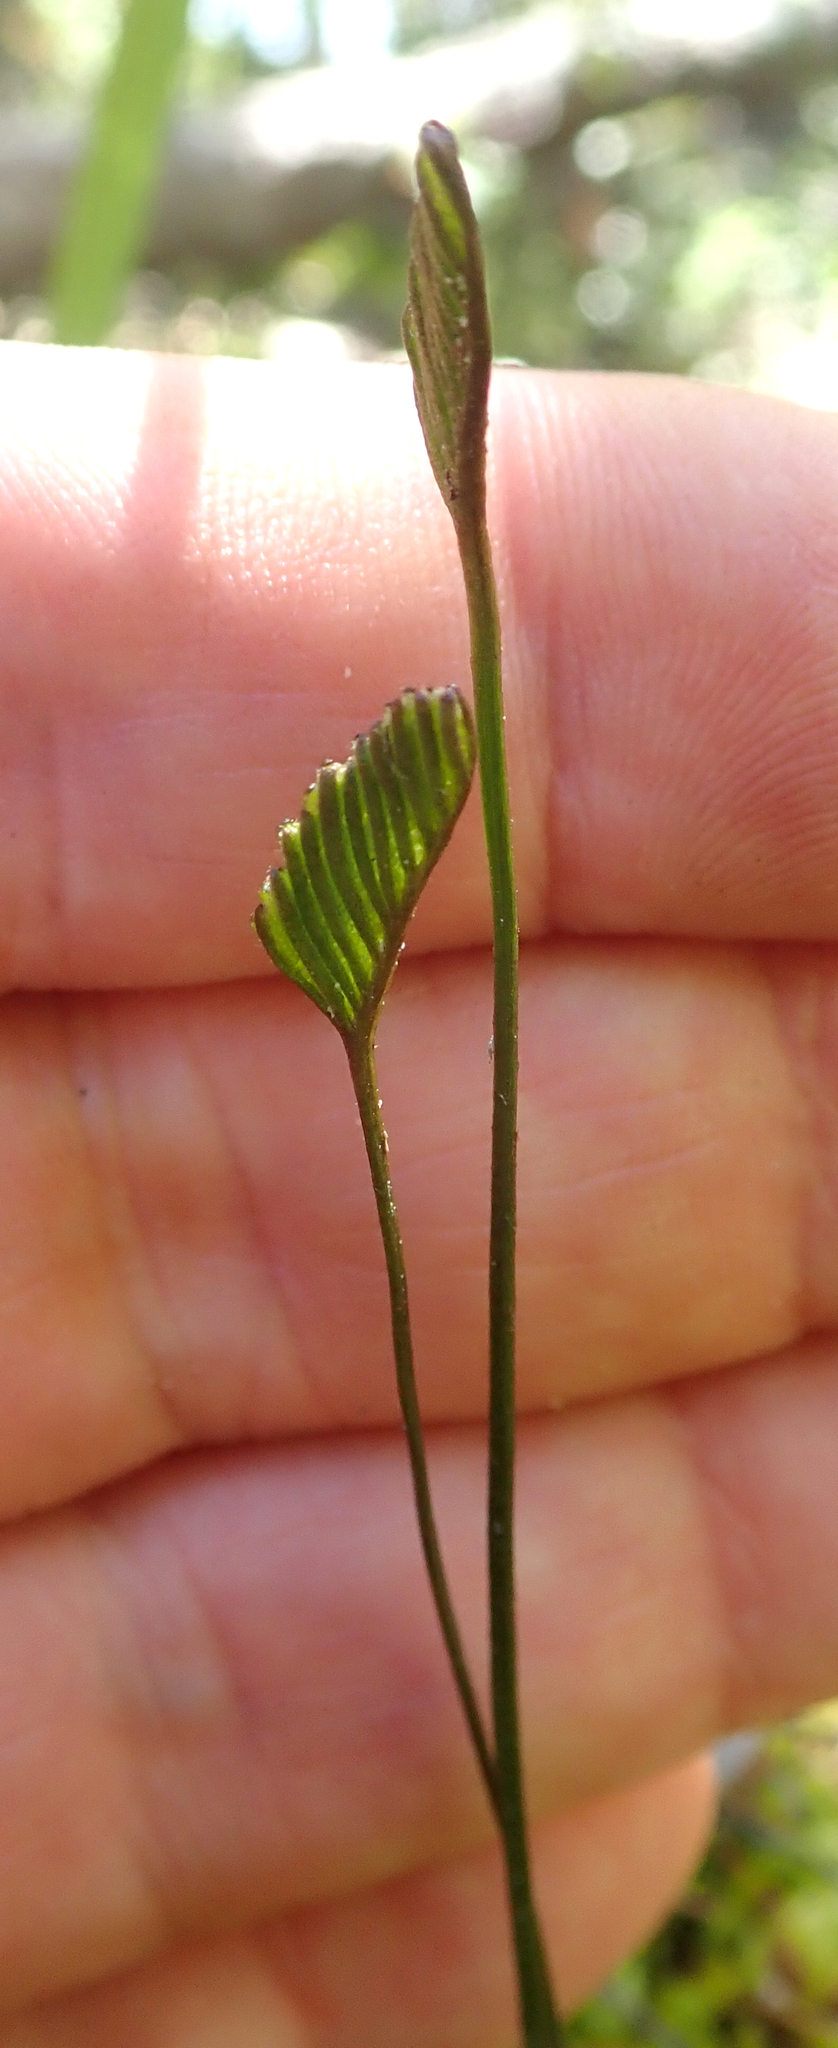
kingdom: Plantae
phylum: Tracheophyta
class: Polypodiopsida
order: Schizaeales
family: Schizaeaceae
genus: Schizaea
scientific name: Schizaea bifida
